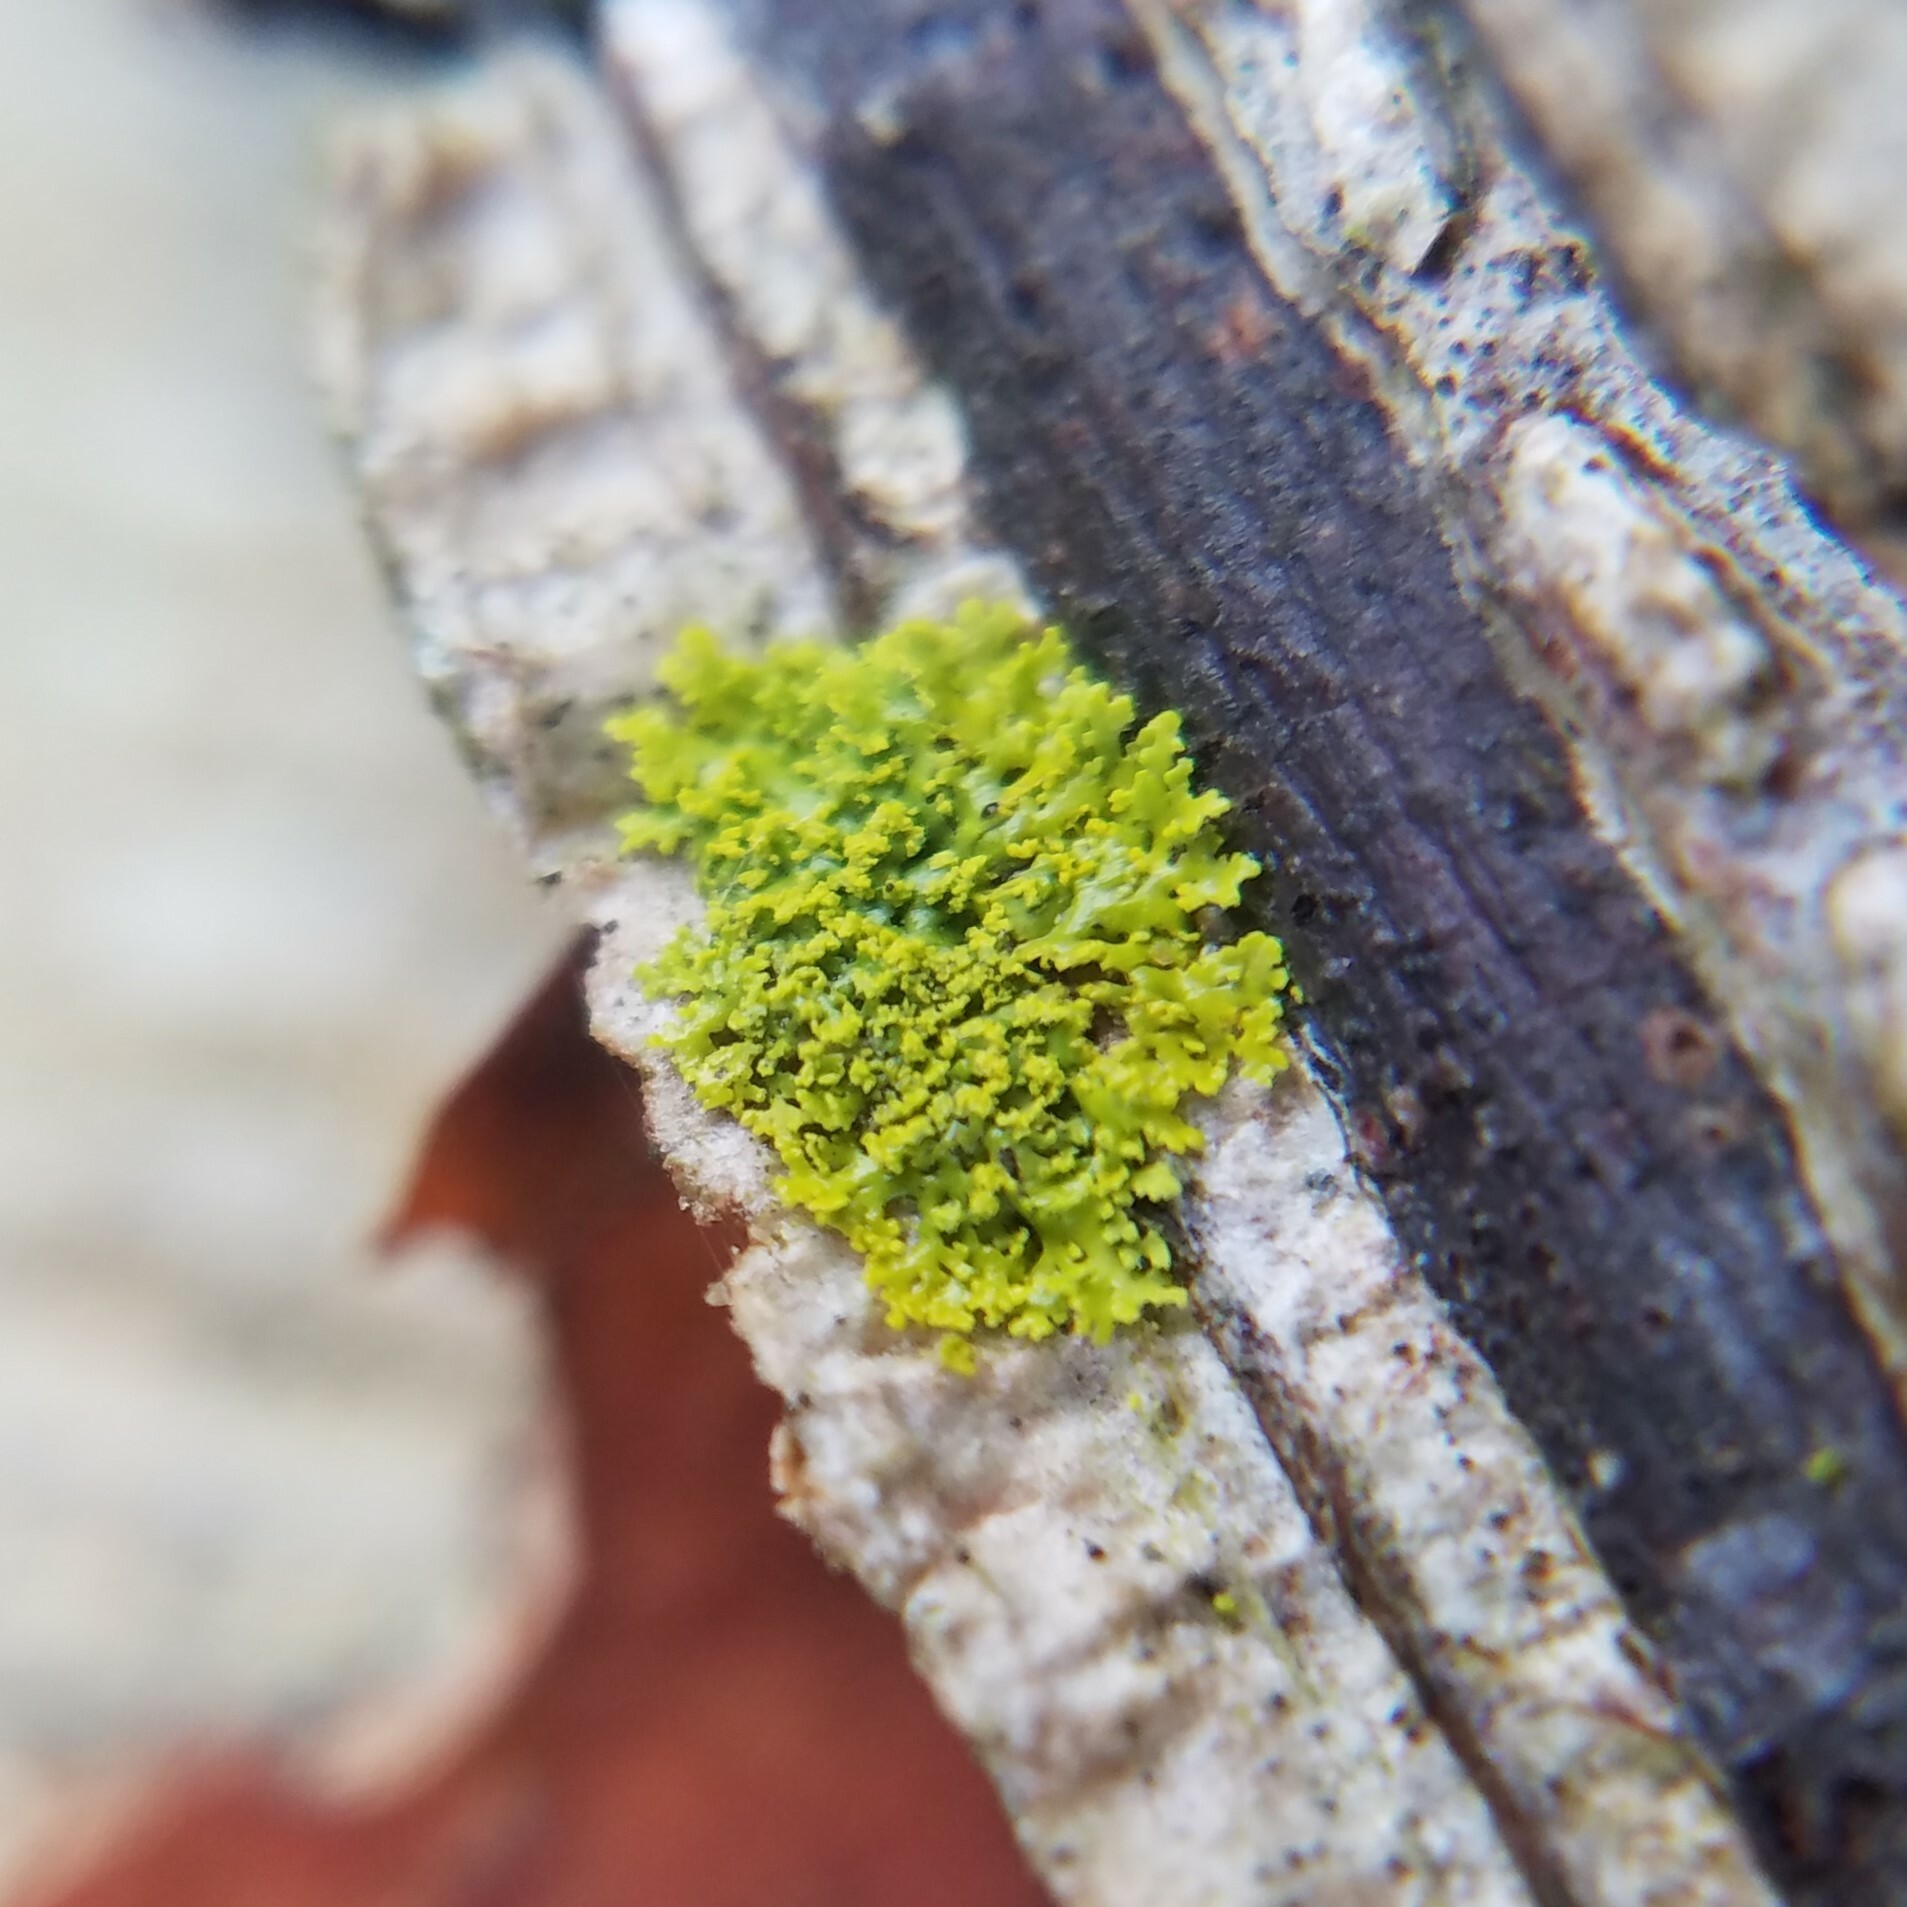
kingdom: Fungi
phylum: Ascomycota
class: Candelariomycetes
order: Candelariales
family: Candelariaceae
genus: Candelaria
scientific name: Candelaria concolor
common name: Candleflame lichen
